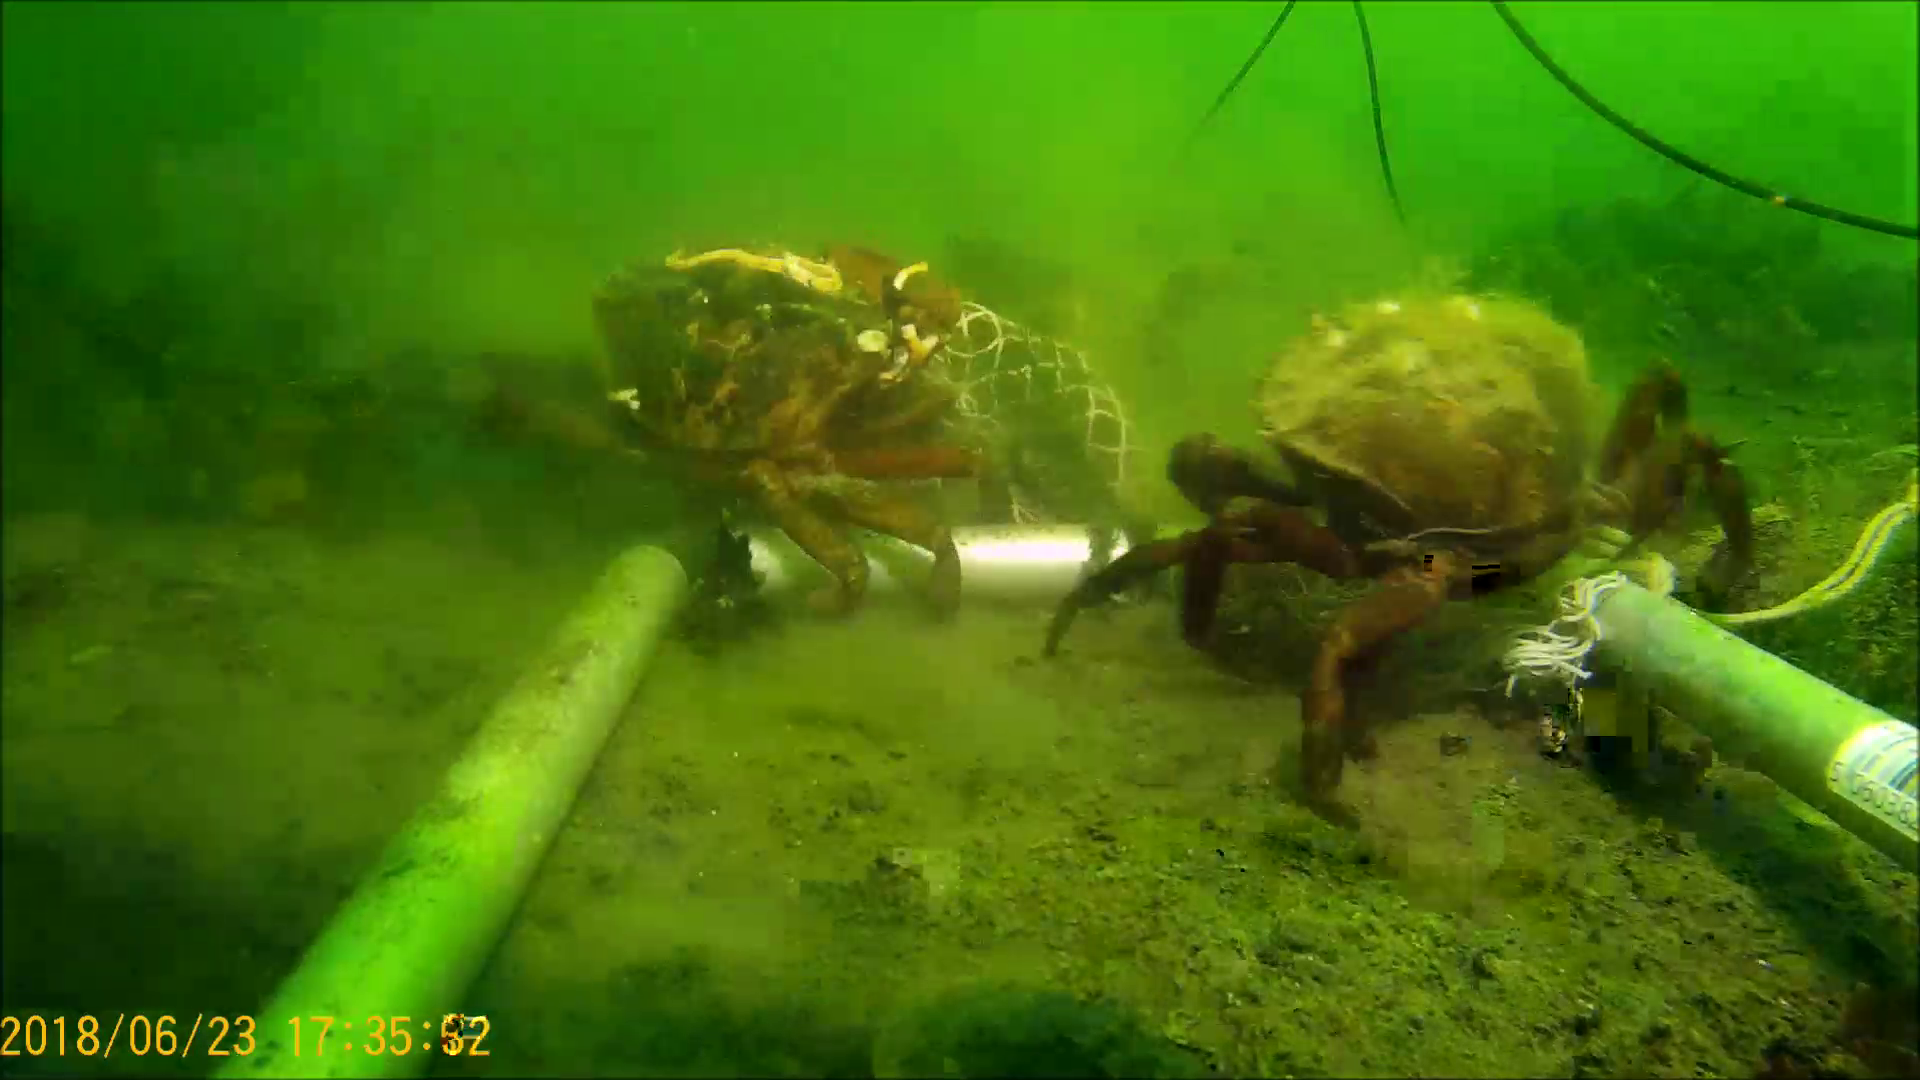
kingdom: Animalia
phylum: Arthropoda
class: Malacostraca
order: Decapoda
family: Carcinidae
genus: Carcinus
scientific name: Carcinus maenas
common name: European green crab
